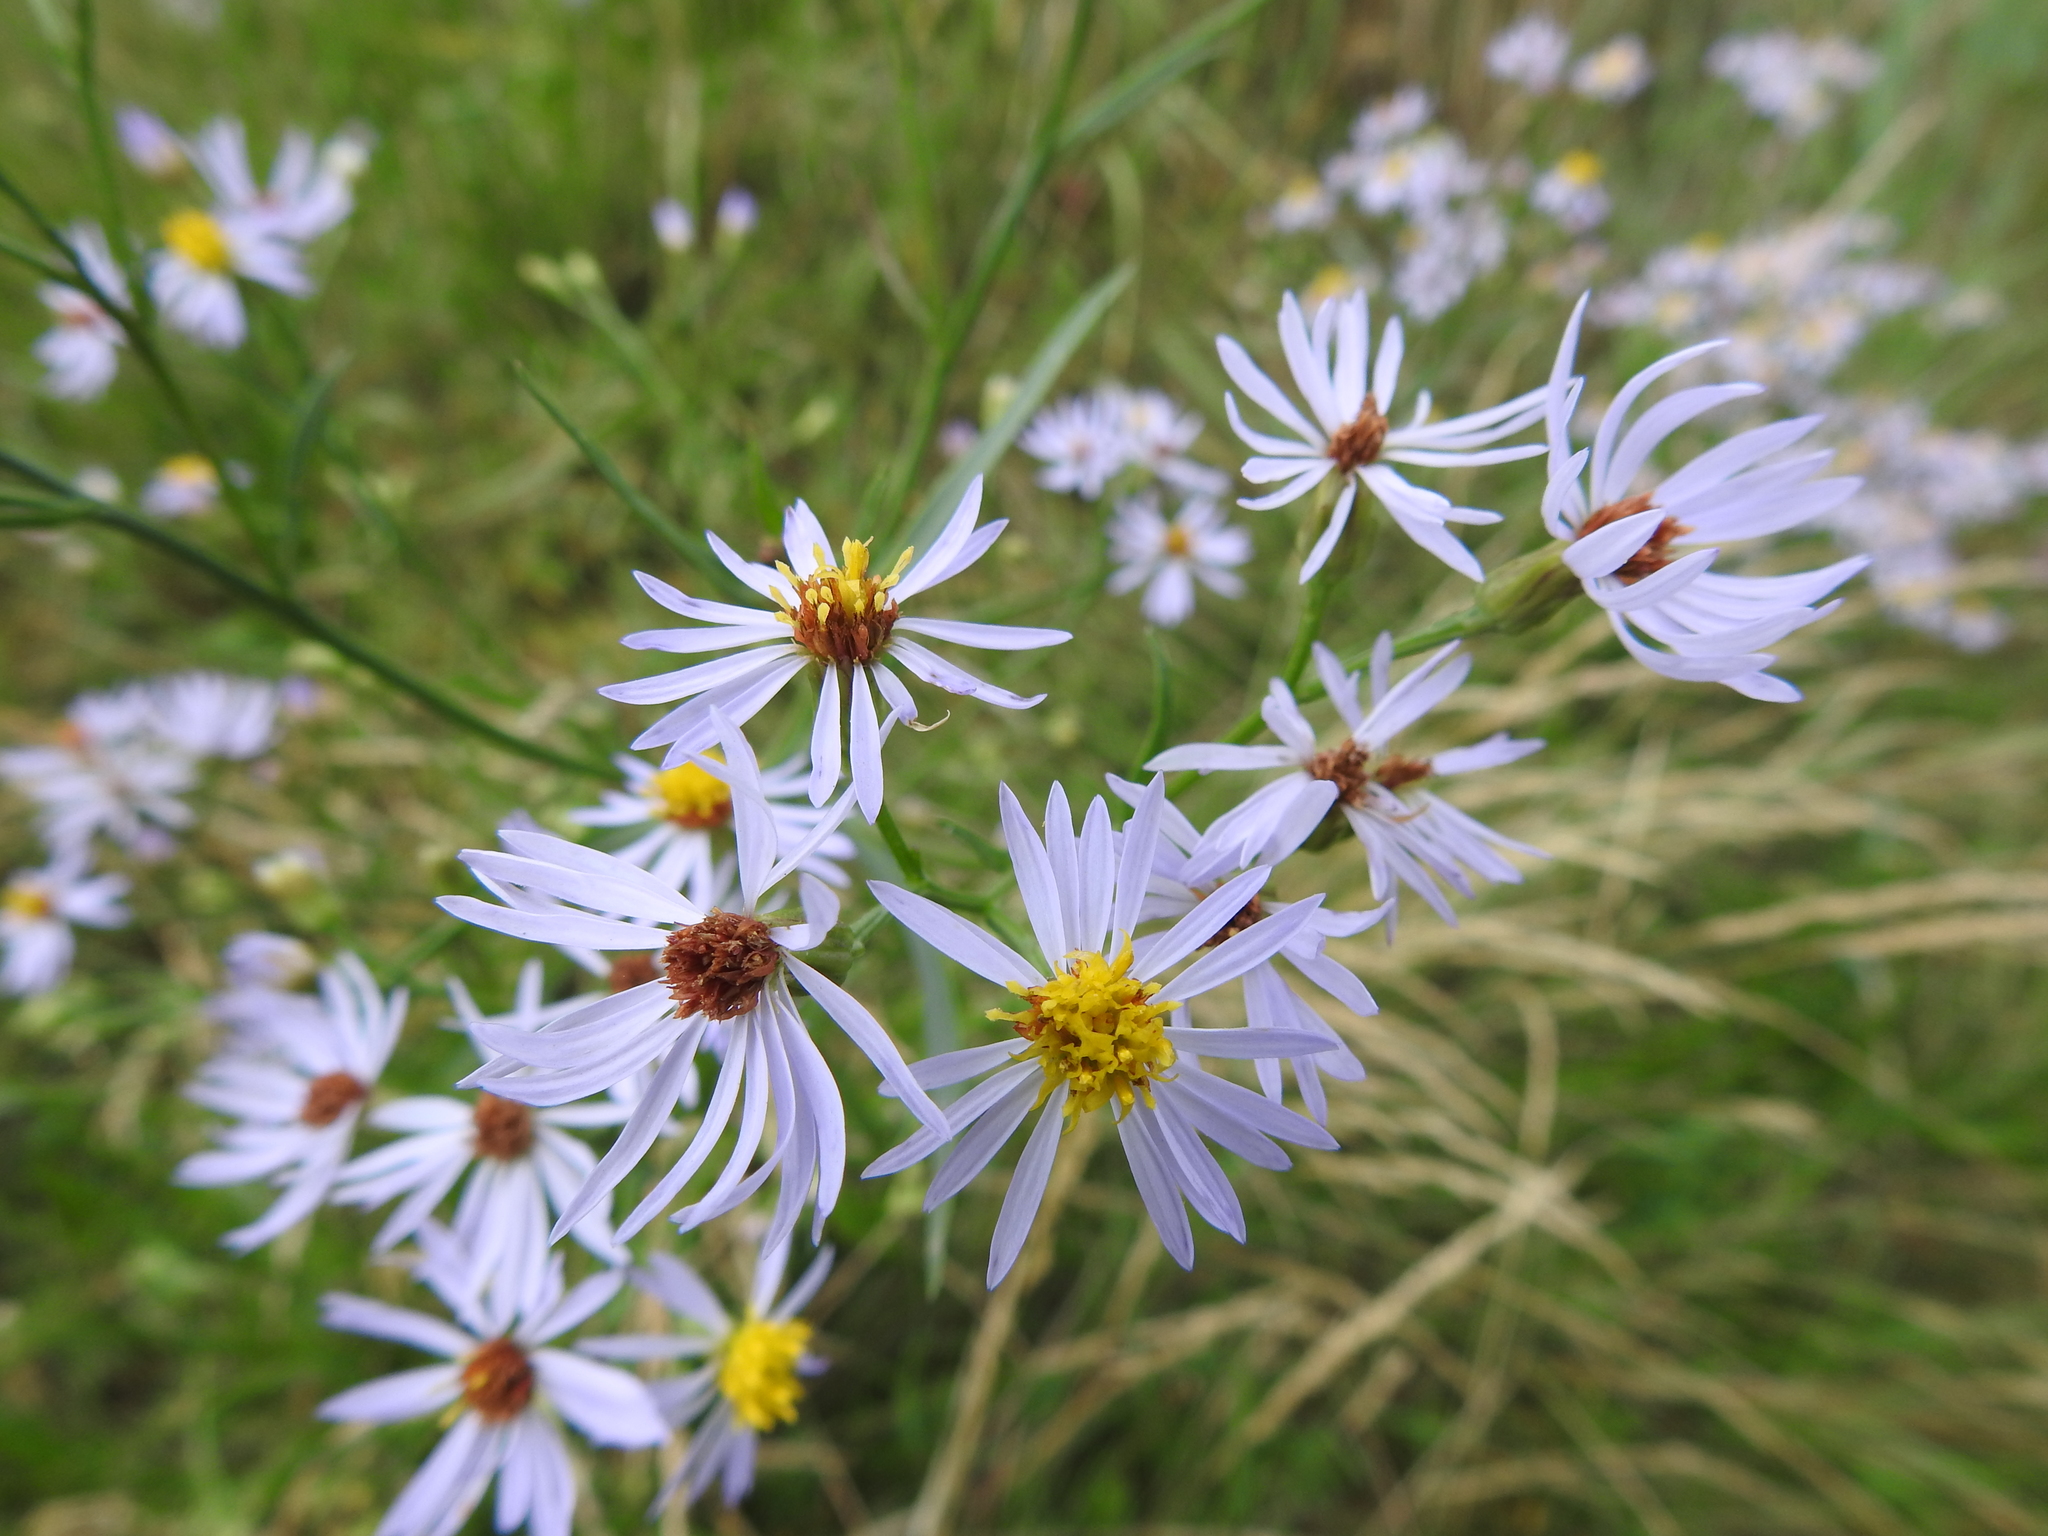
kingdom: Plantae
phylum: Tracheophyta
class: Magnoliopsida
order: Asterales
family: Asteraceae
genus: Tripolium
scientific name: Tripolium pannonicum
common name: Sea aster
